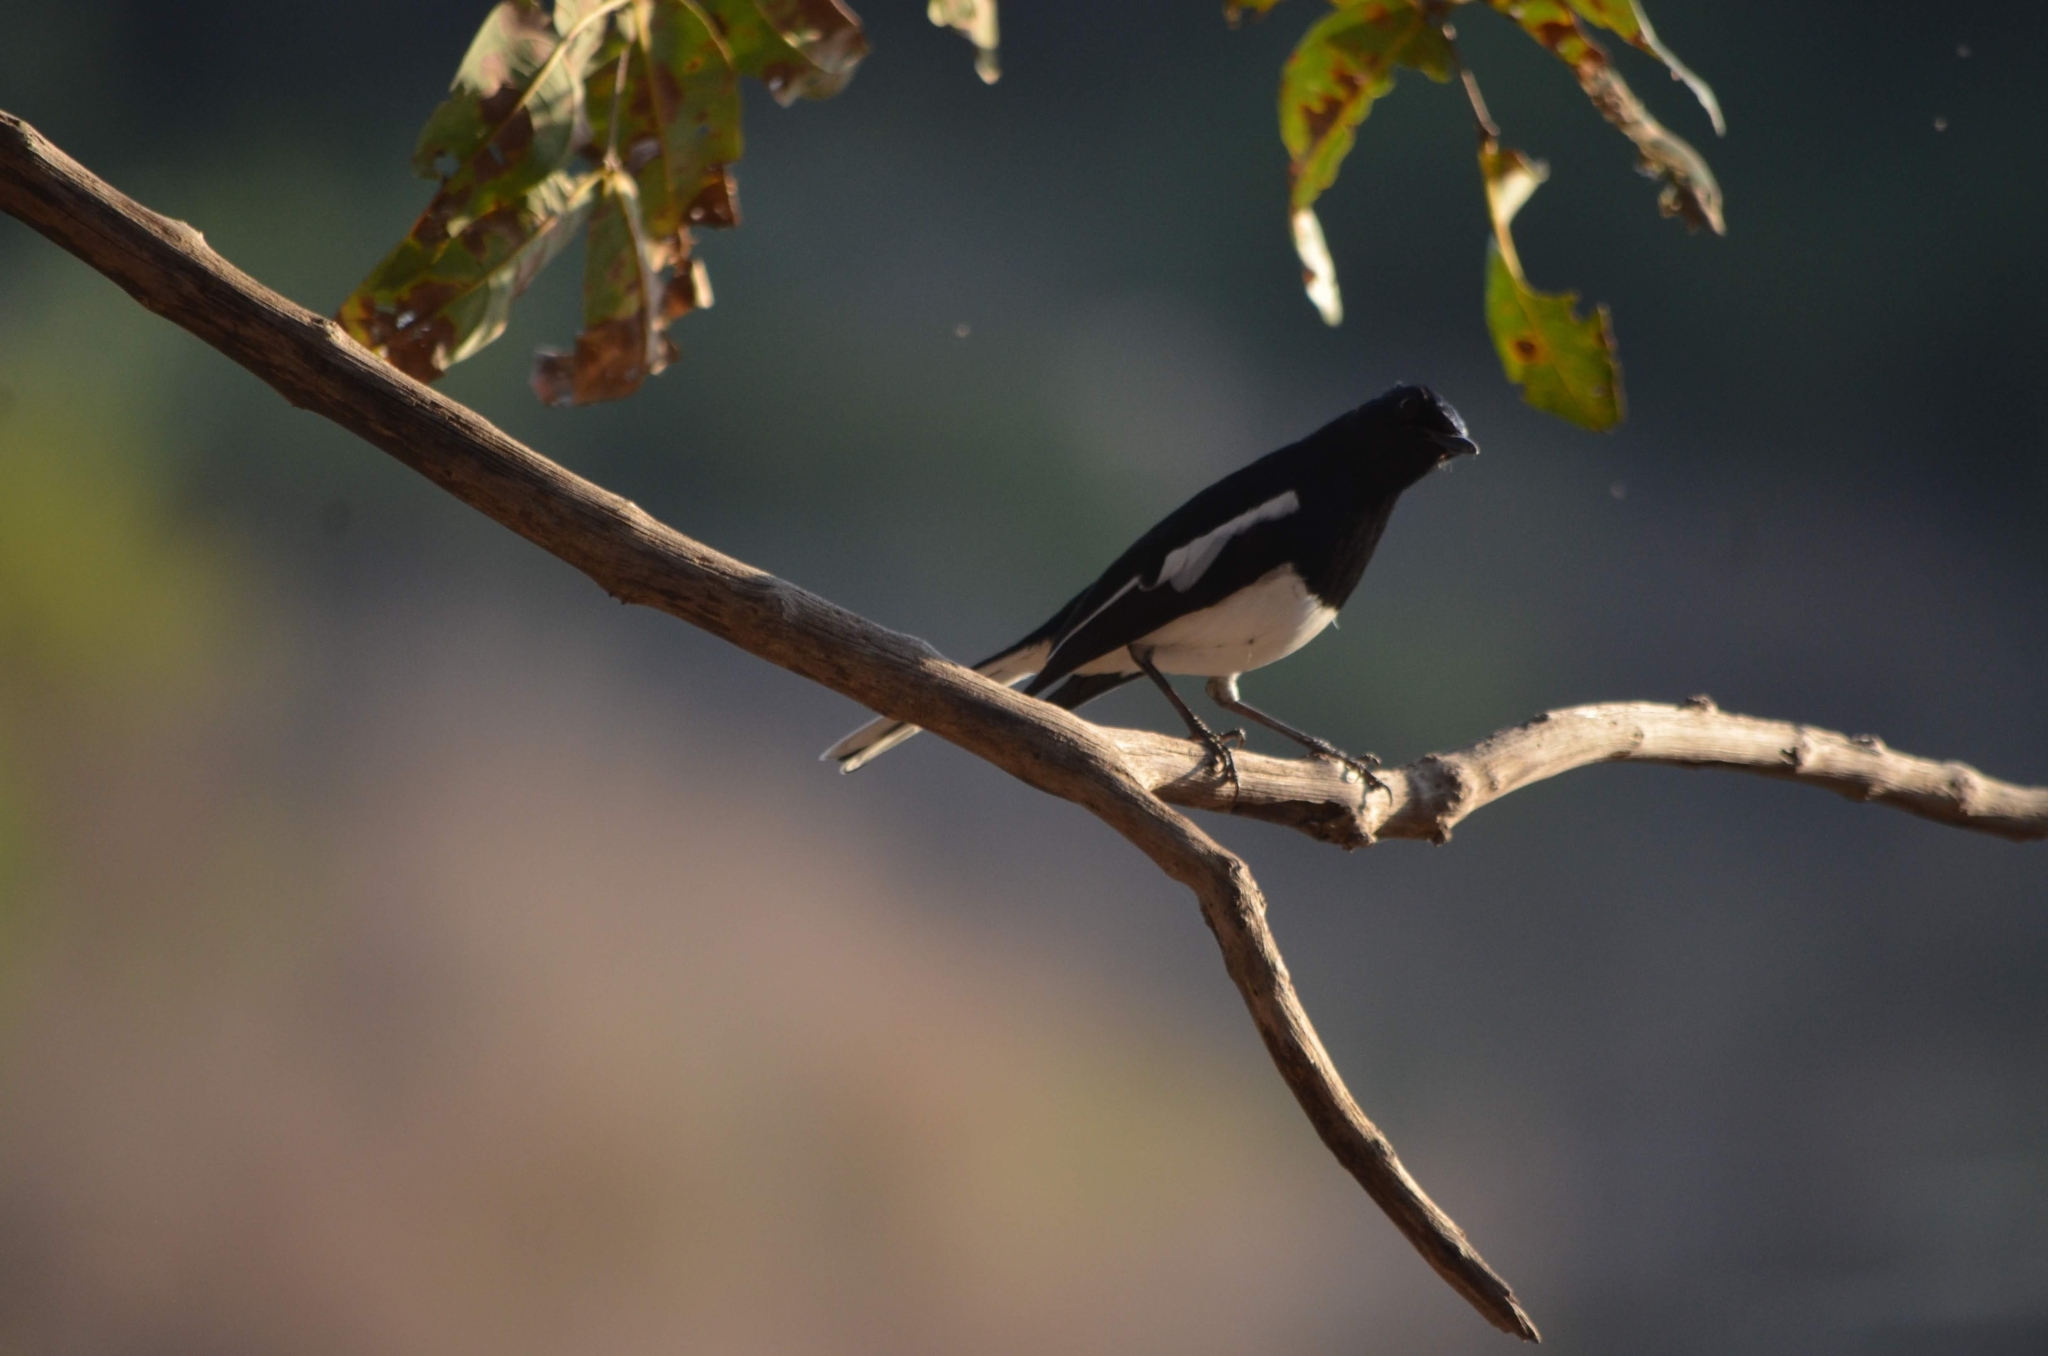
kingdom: Animalia
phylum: Chordata
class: Aves
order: Passeriformes
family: Muscicapidae
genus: Copsychus
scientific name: Copsychus saularis
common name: Oriental magpie-robin
